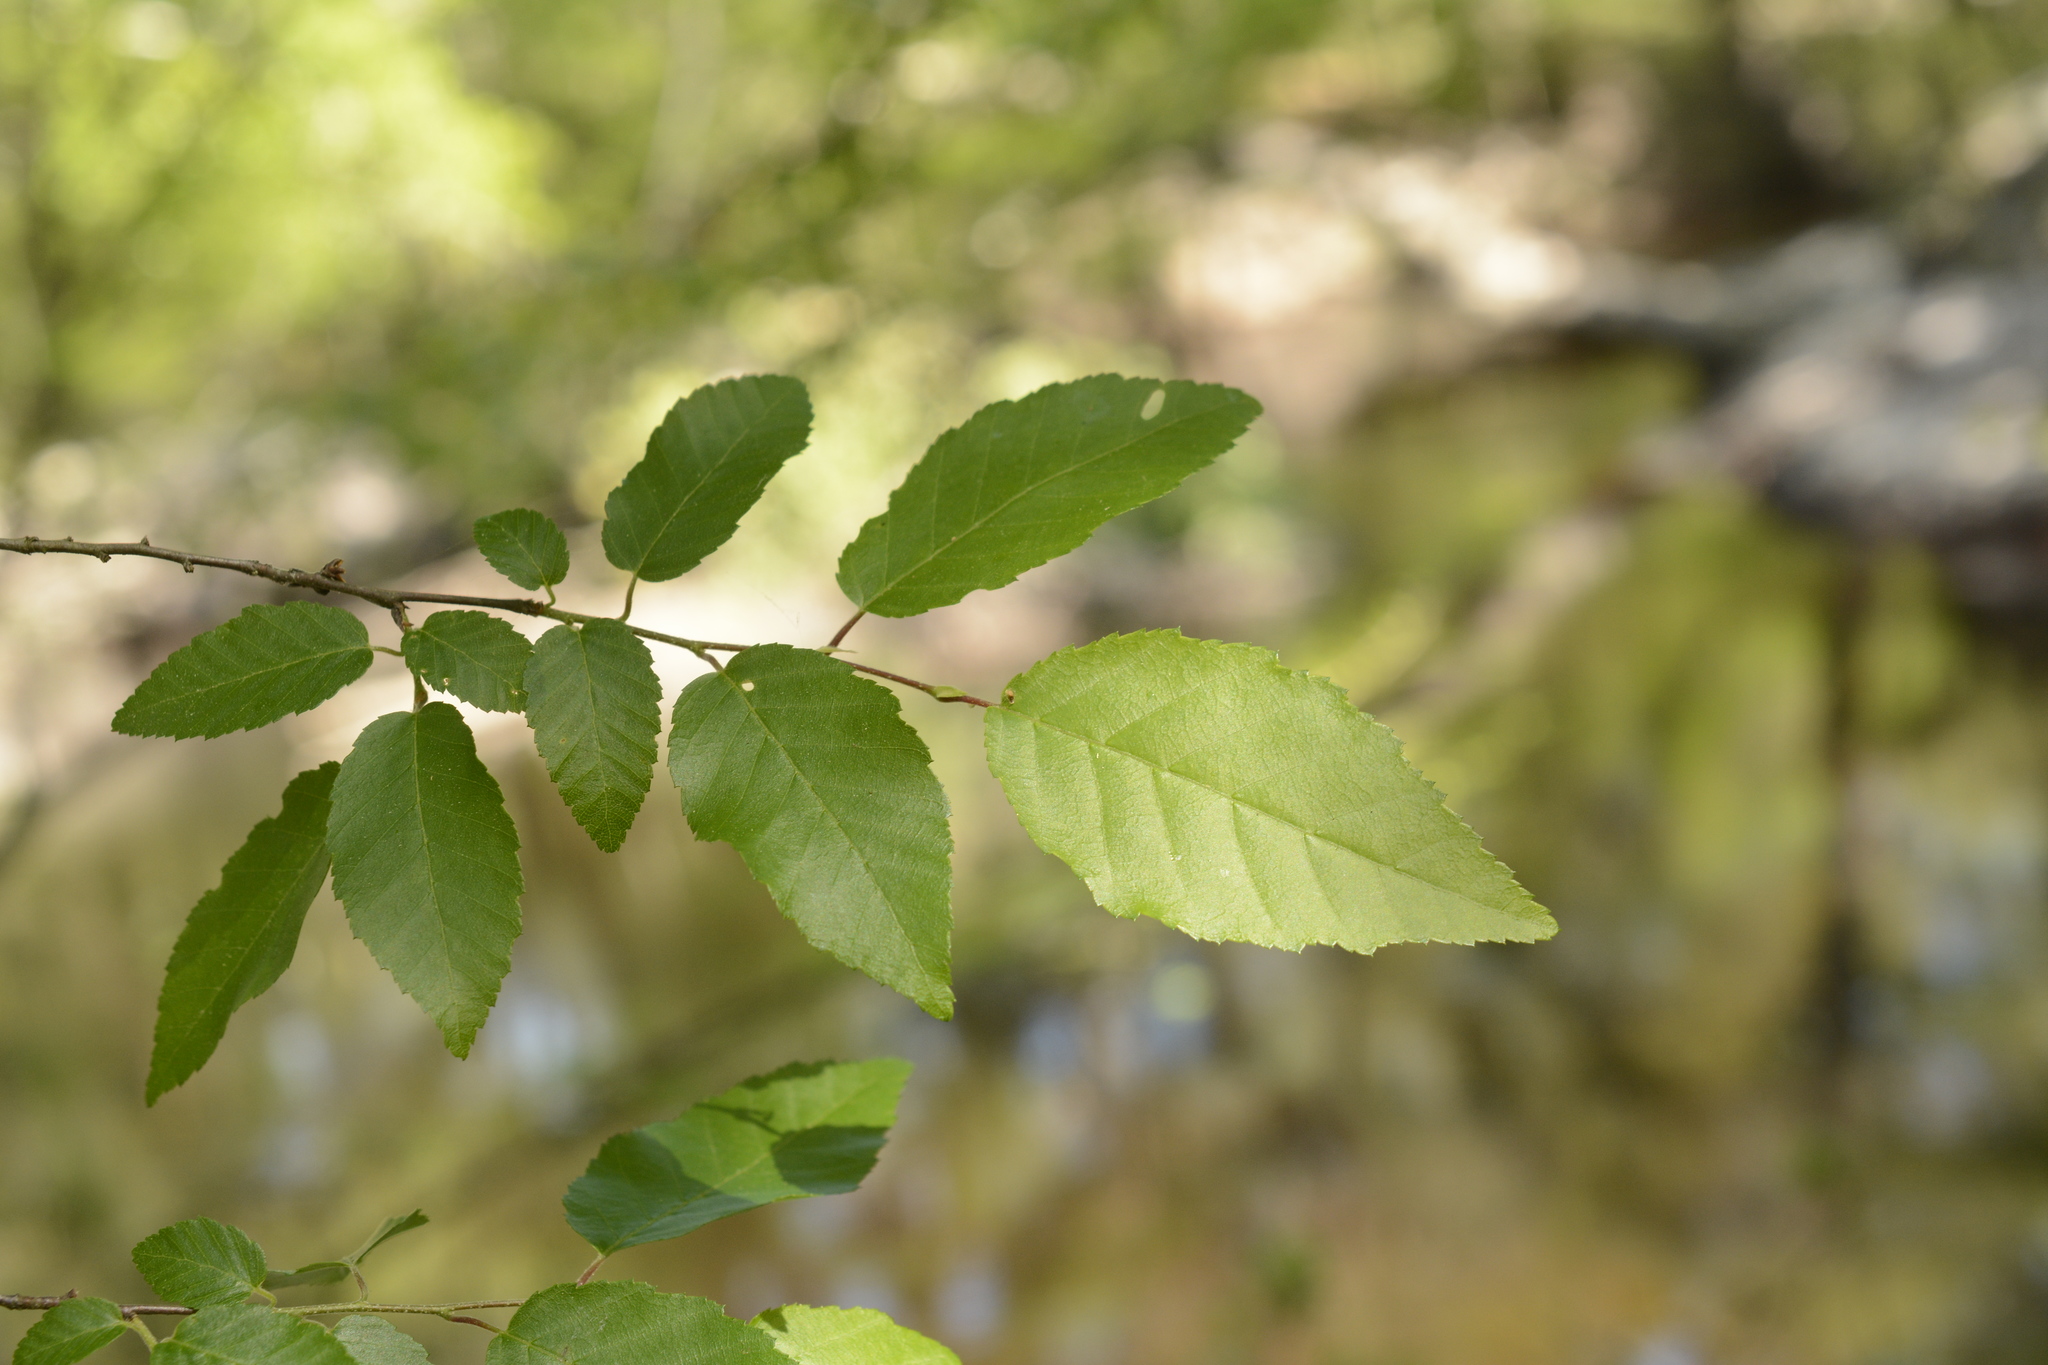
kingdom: Plantae
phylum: Tracheophyta
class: Magnoliopsida
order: Fagales
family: Betulaceae
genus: Carpinus
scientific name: Carpinus caroliniana
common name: American hornbeam
